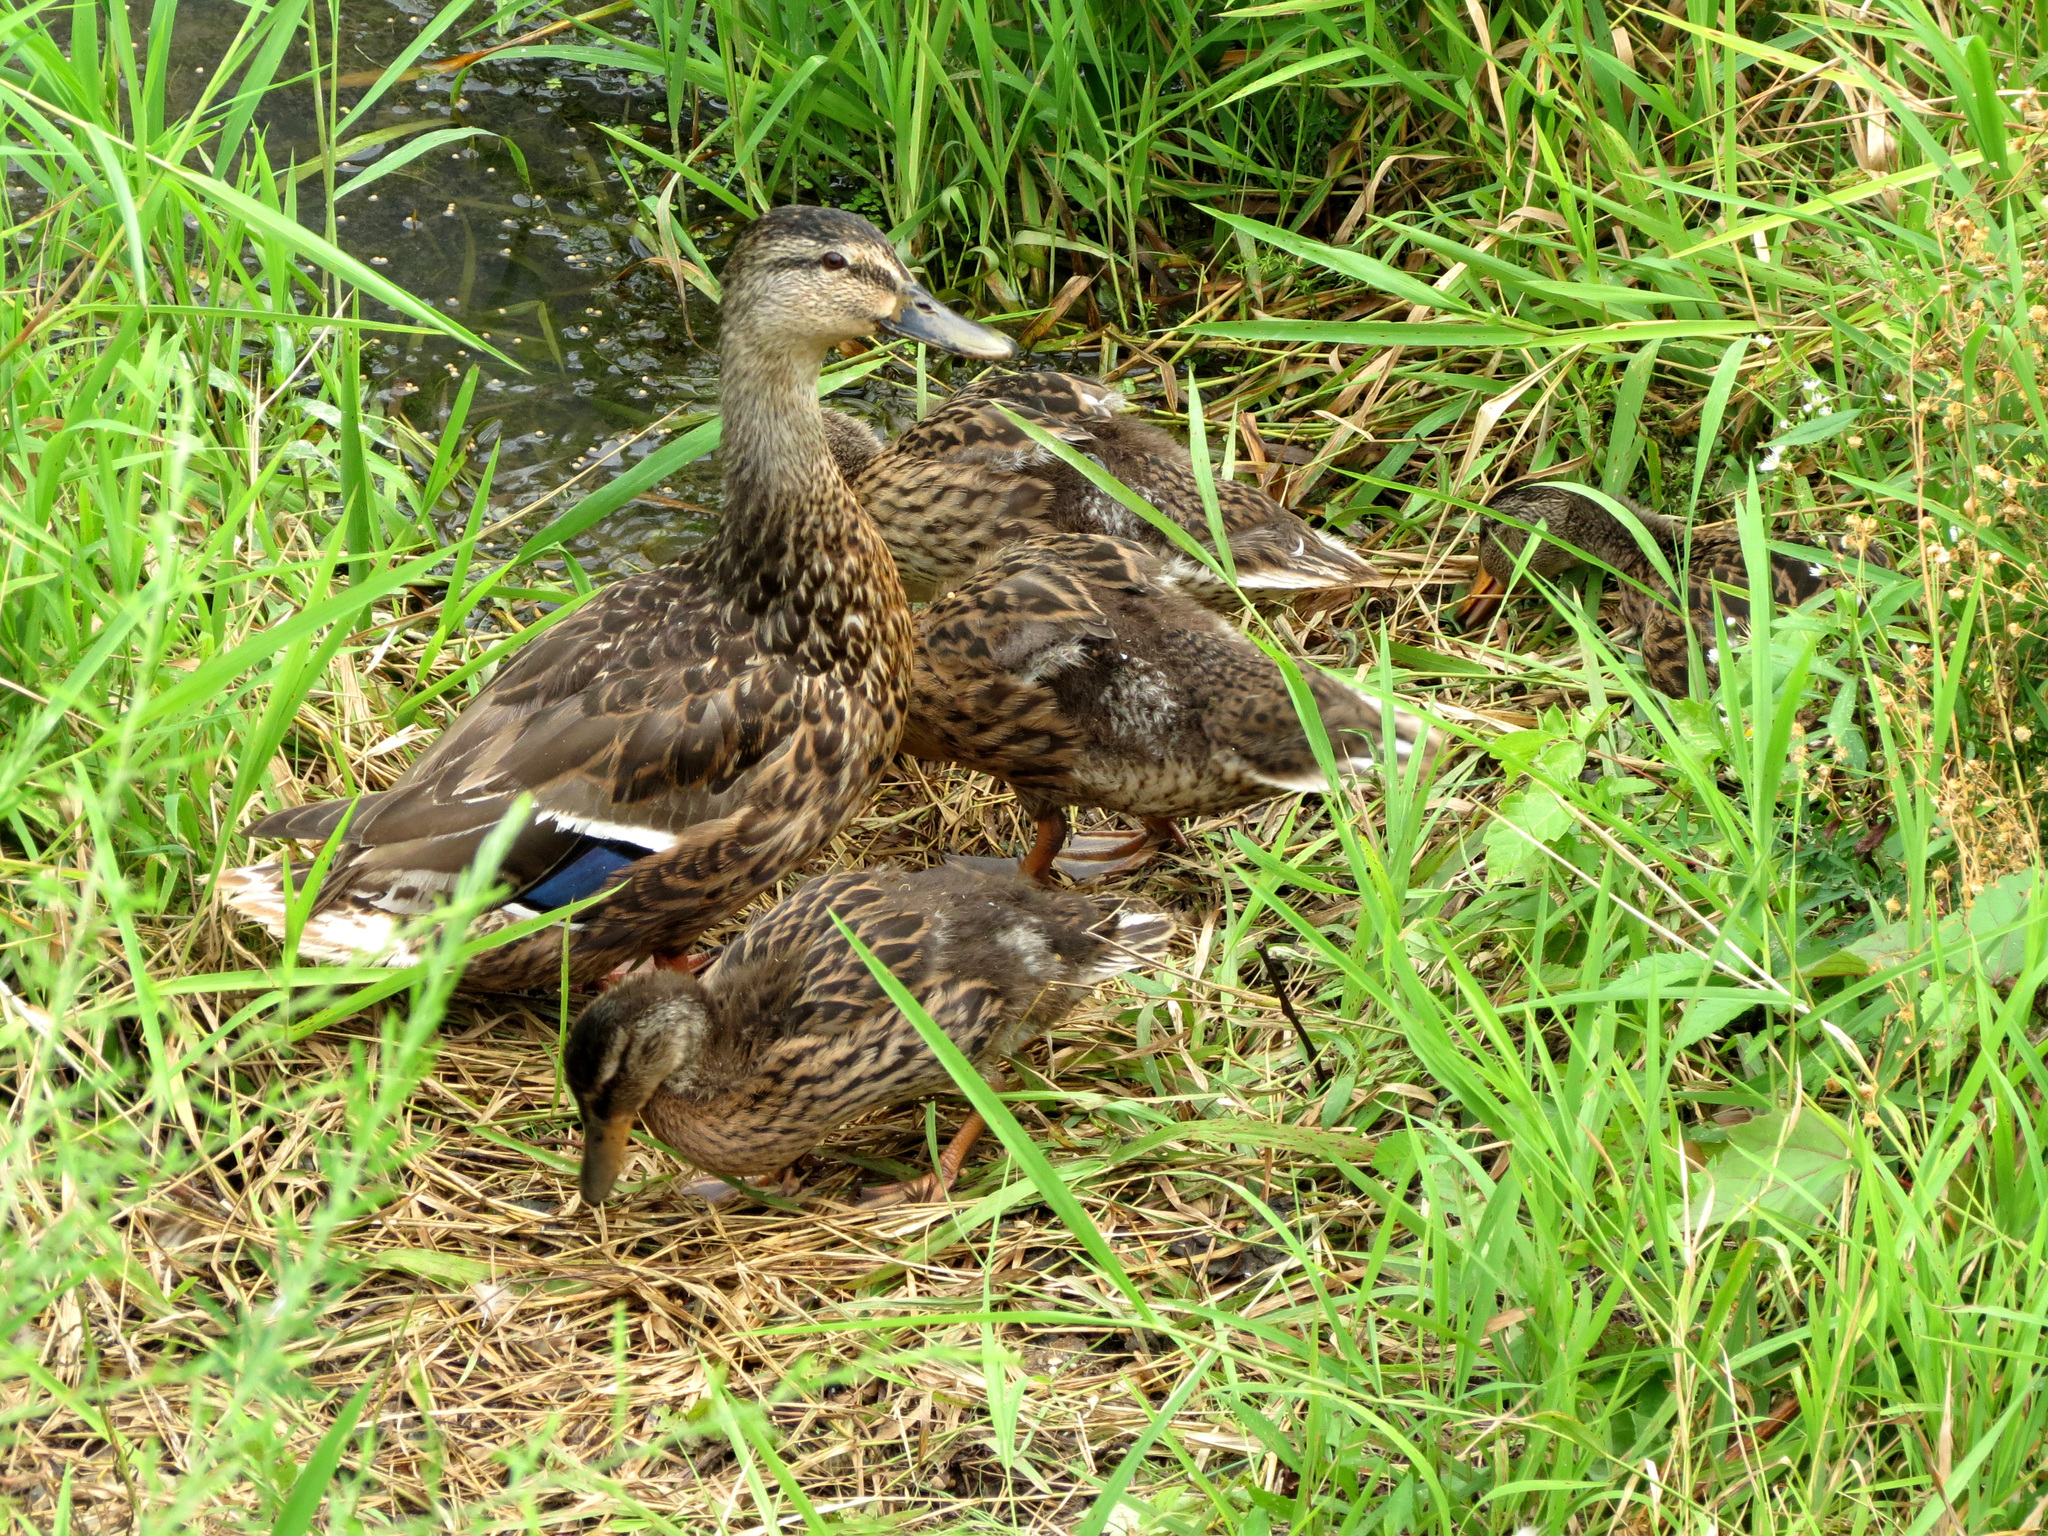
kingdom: Animalia
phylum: Chordata
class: Aves
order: Anseriformes
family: Anatidae
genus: Anas
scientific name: Anas platyrhynchos
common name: Mallard
